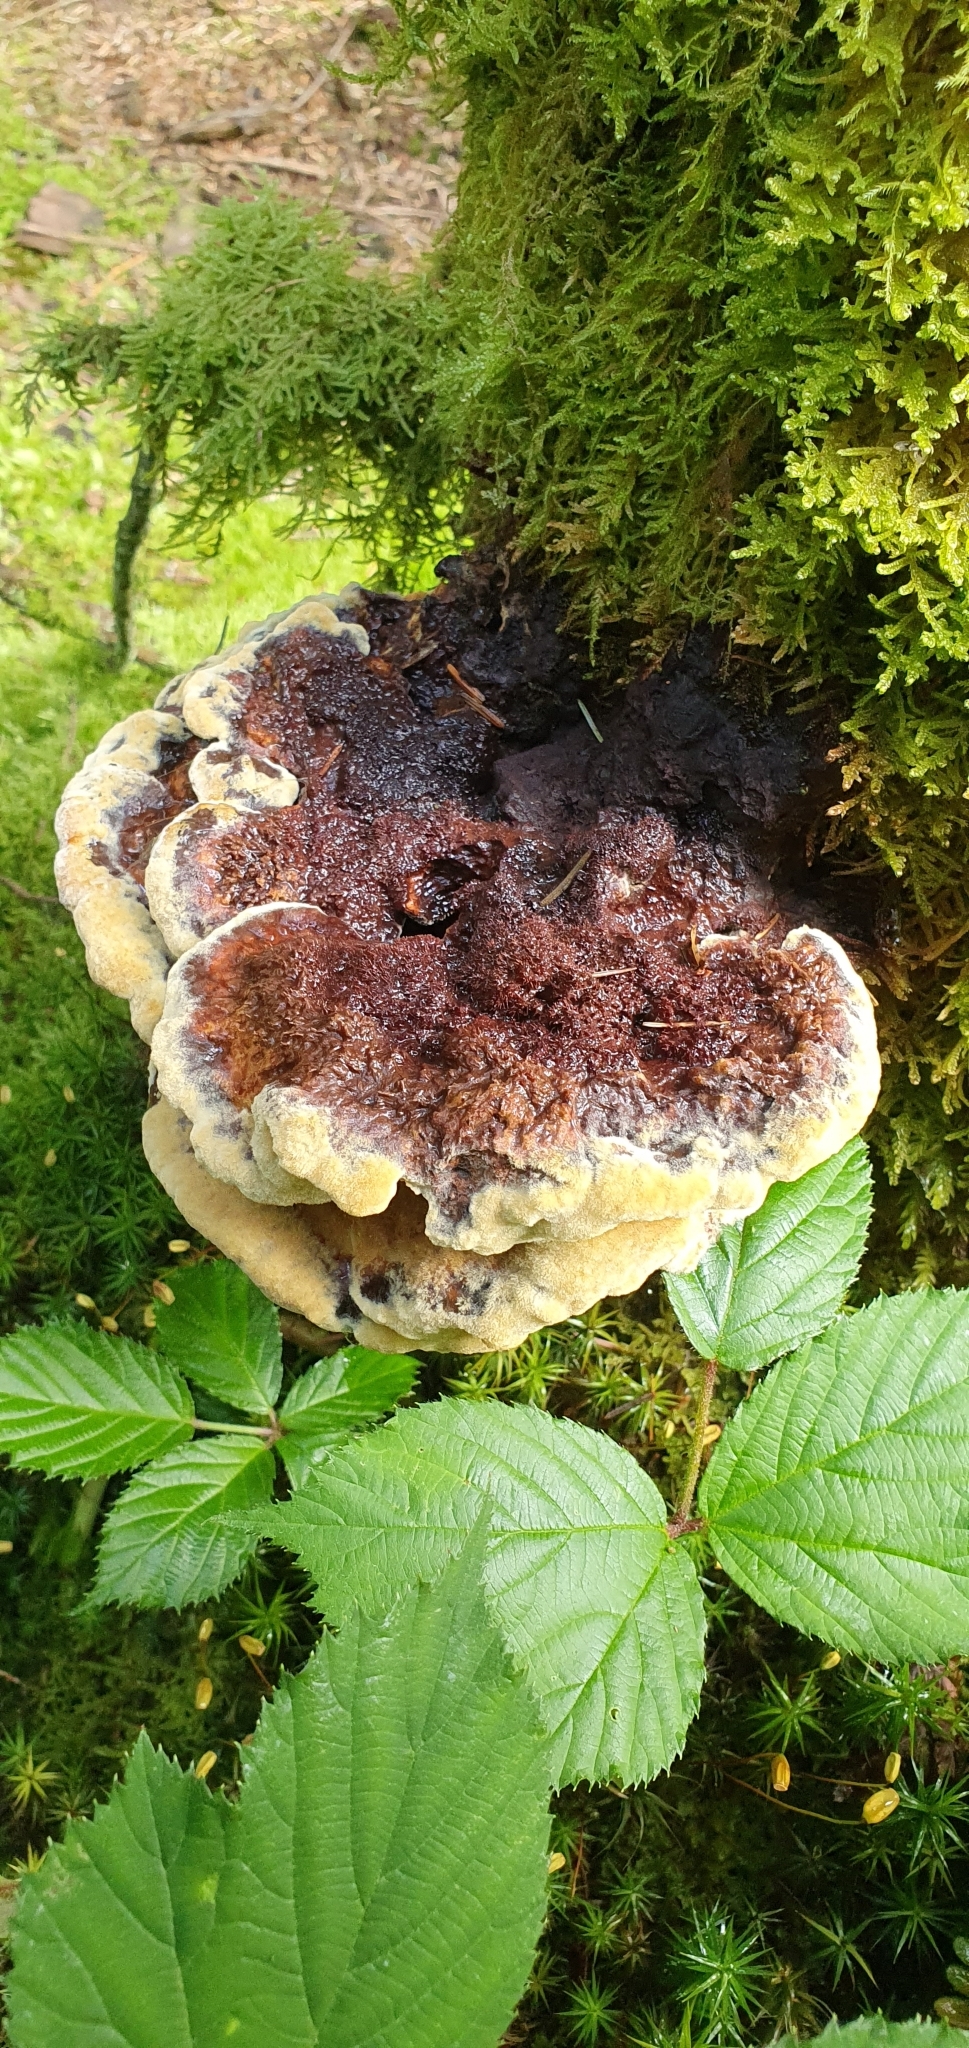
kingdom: Fungi
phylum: Basidiomycota
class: Agaricomycetes
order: Polyporales
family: Laetiporaceae
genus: Phaeolus
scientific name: Phaeolus schweinitzii
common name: Dyer's mazegill
